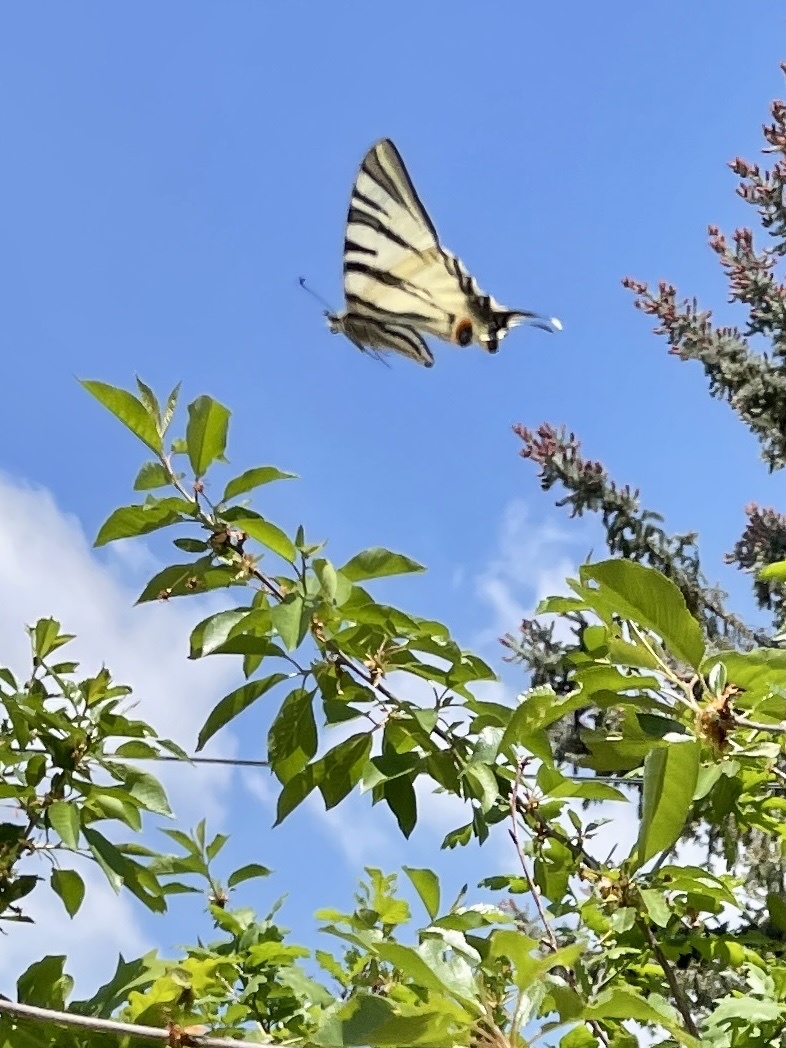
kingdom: Animalia
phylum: Arthropoda
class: Insecta
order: Lepidoptera
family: Papilionidae
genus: Iphiclides
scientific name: Iphiclides podalirius
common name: Scarce swallowtail
